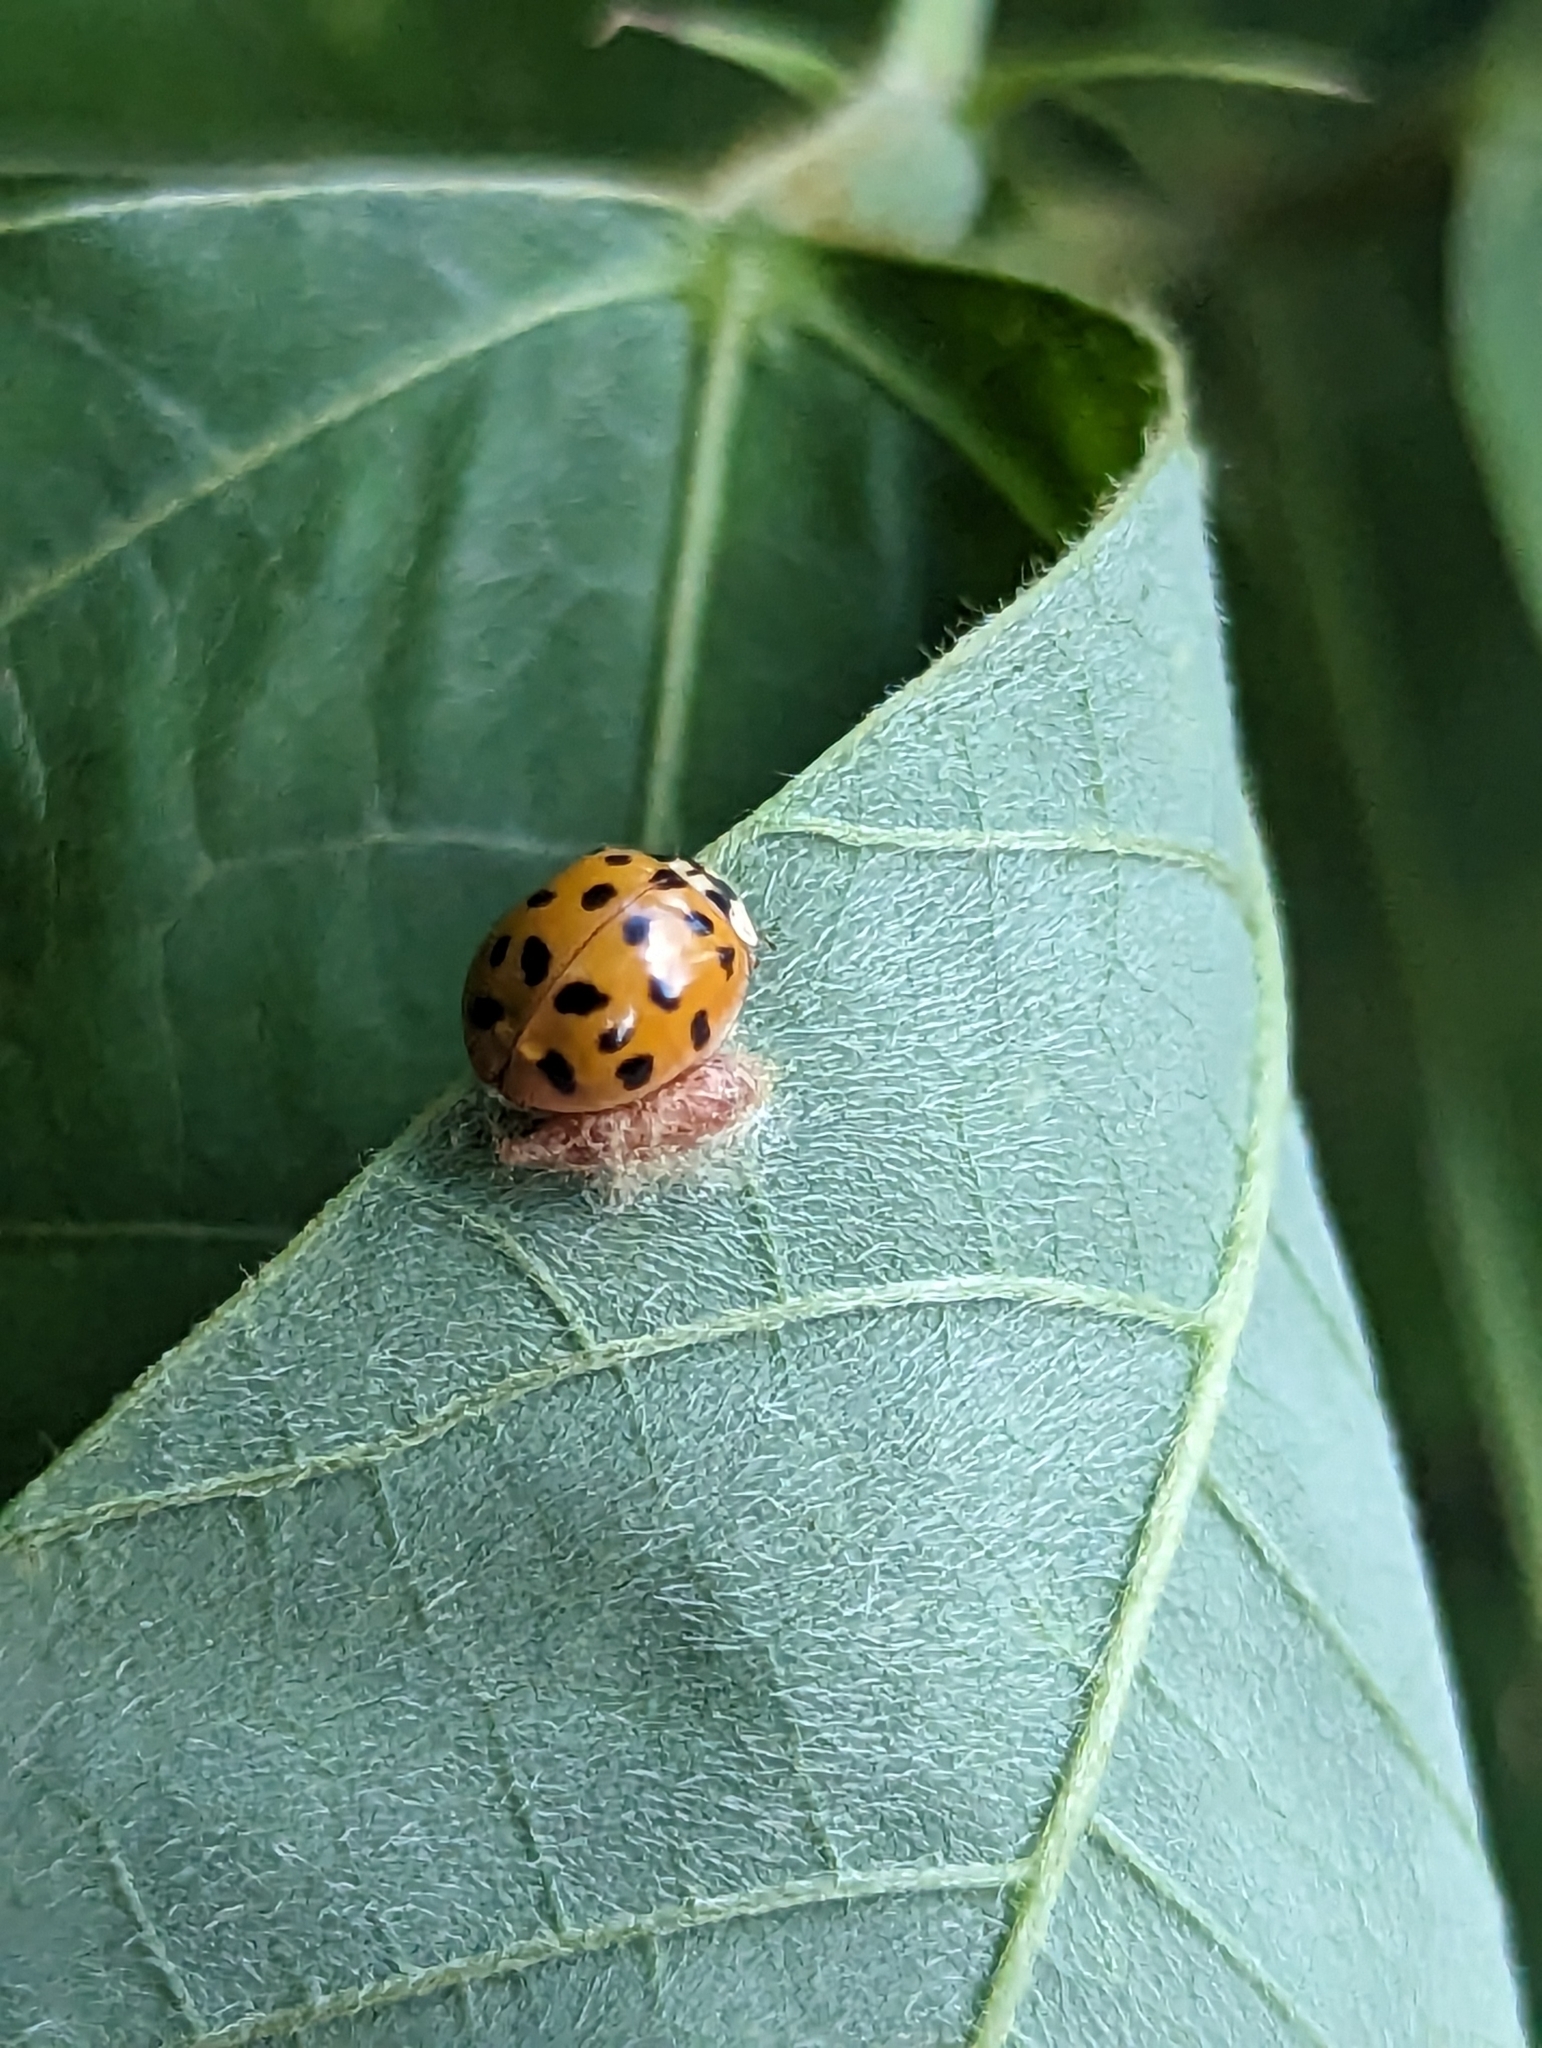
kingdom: Animalia
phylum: Arthropoda
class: Insecta
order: Hymenoptera
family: Braconidae
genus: Dinocampus
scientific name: Dinocampus coccinellae
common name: Braconid wasp
